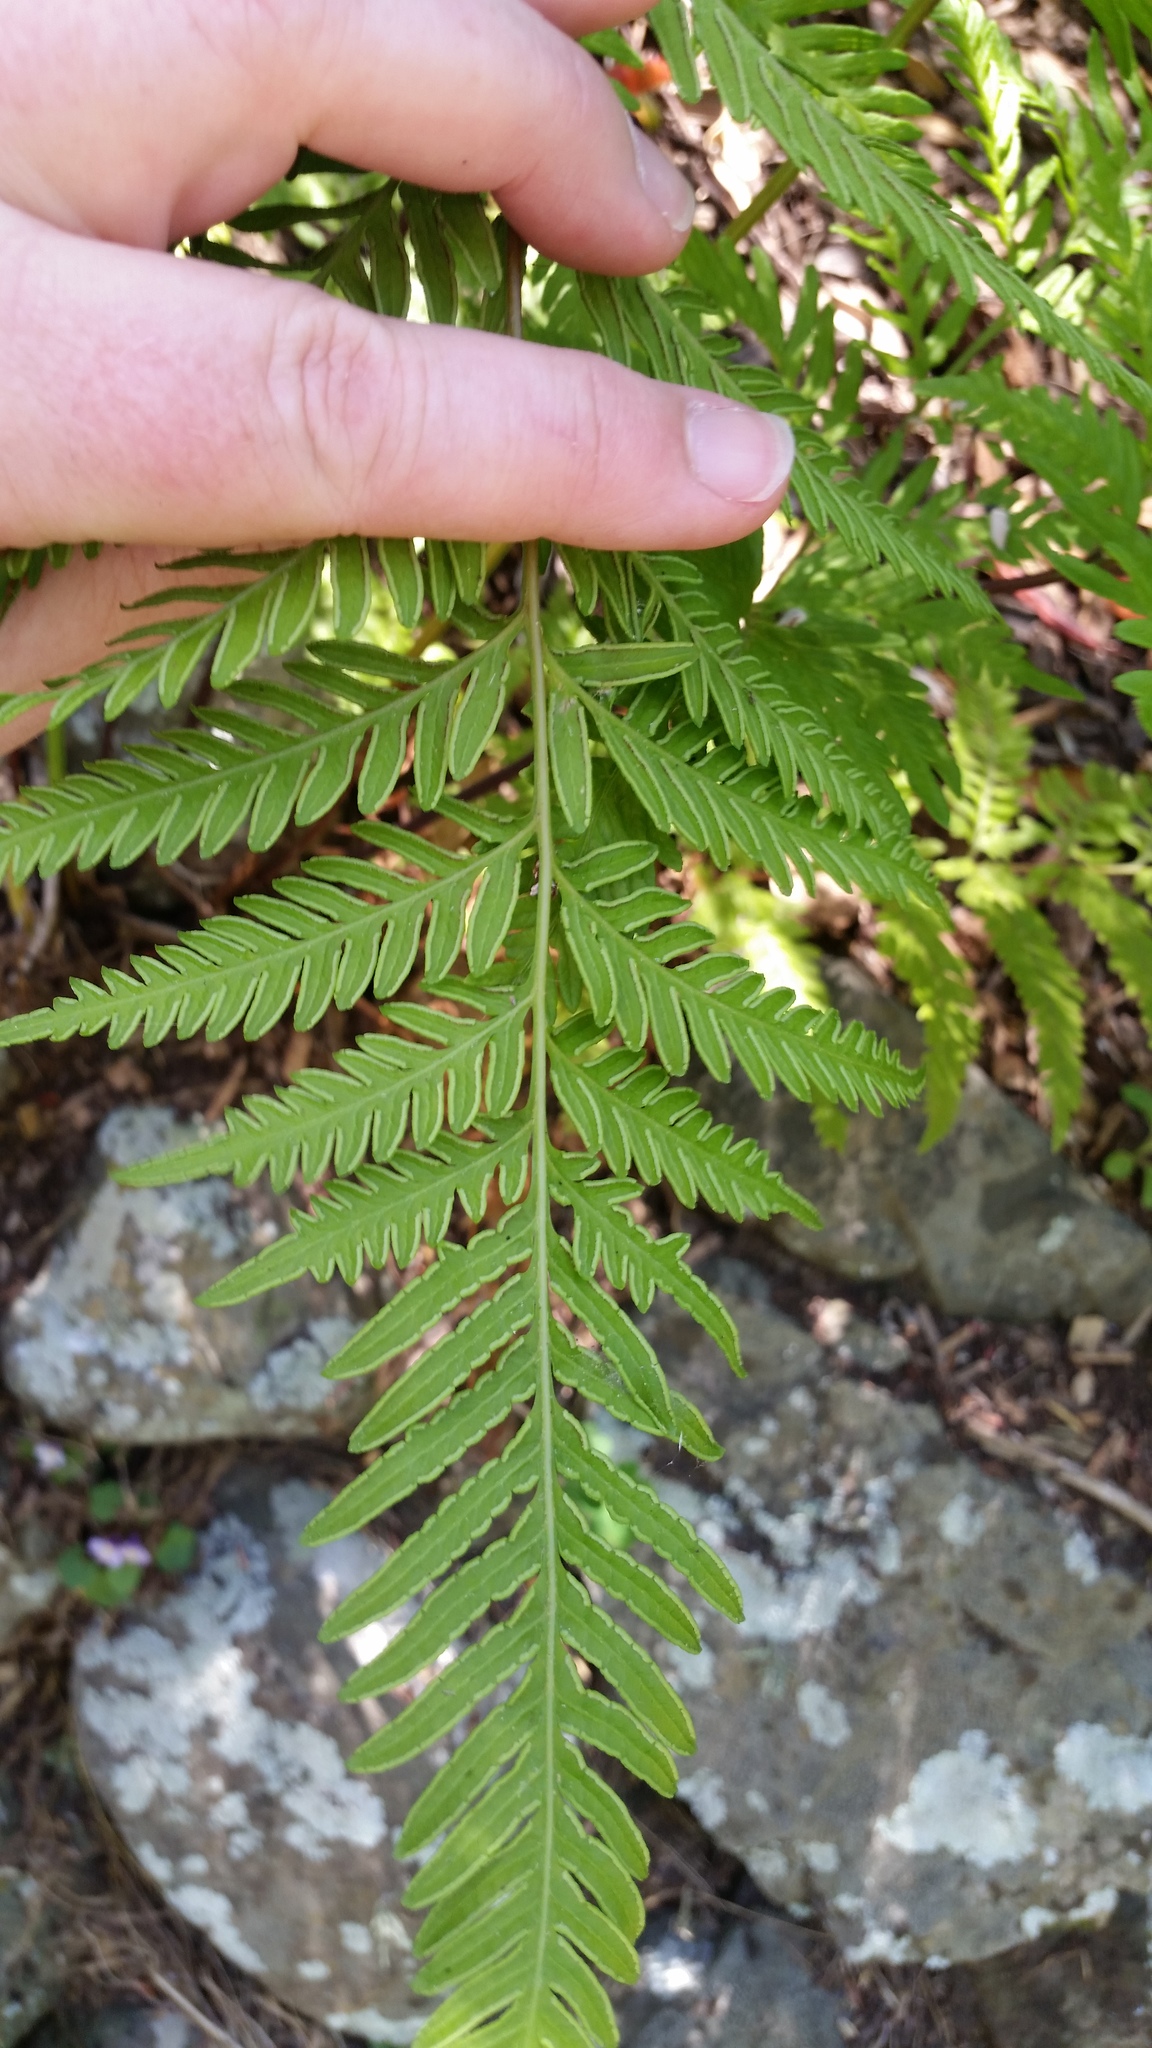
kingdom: Plantae
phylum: Tracheophyta
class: Polypodiopsida
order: Polypodiales
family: Pteridaceae
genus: Pteris
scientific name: Pteris tremula
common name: Australian brake
